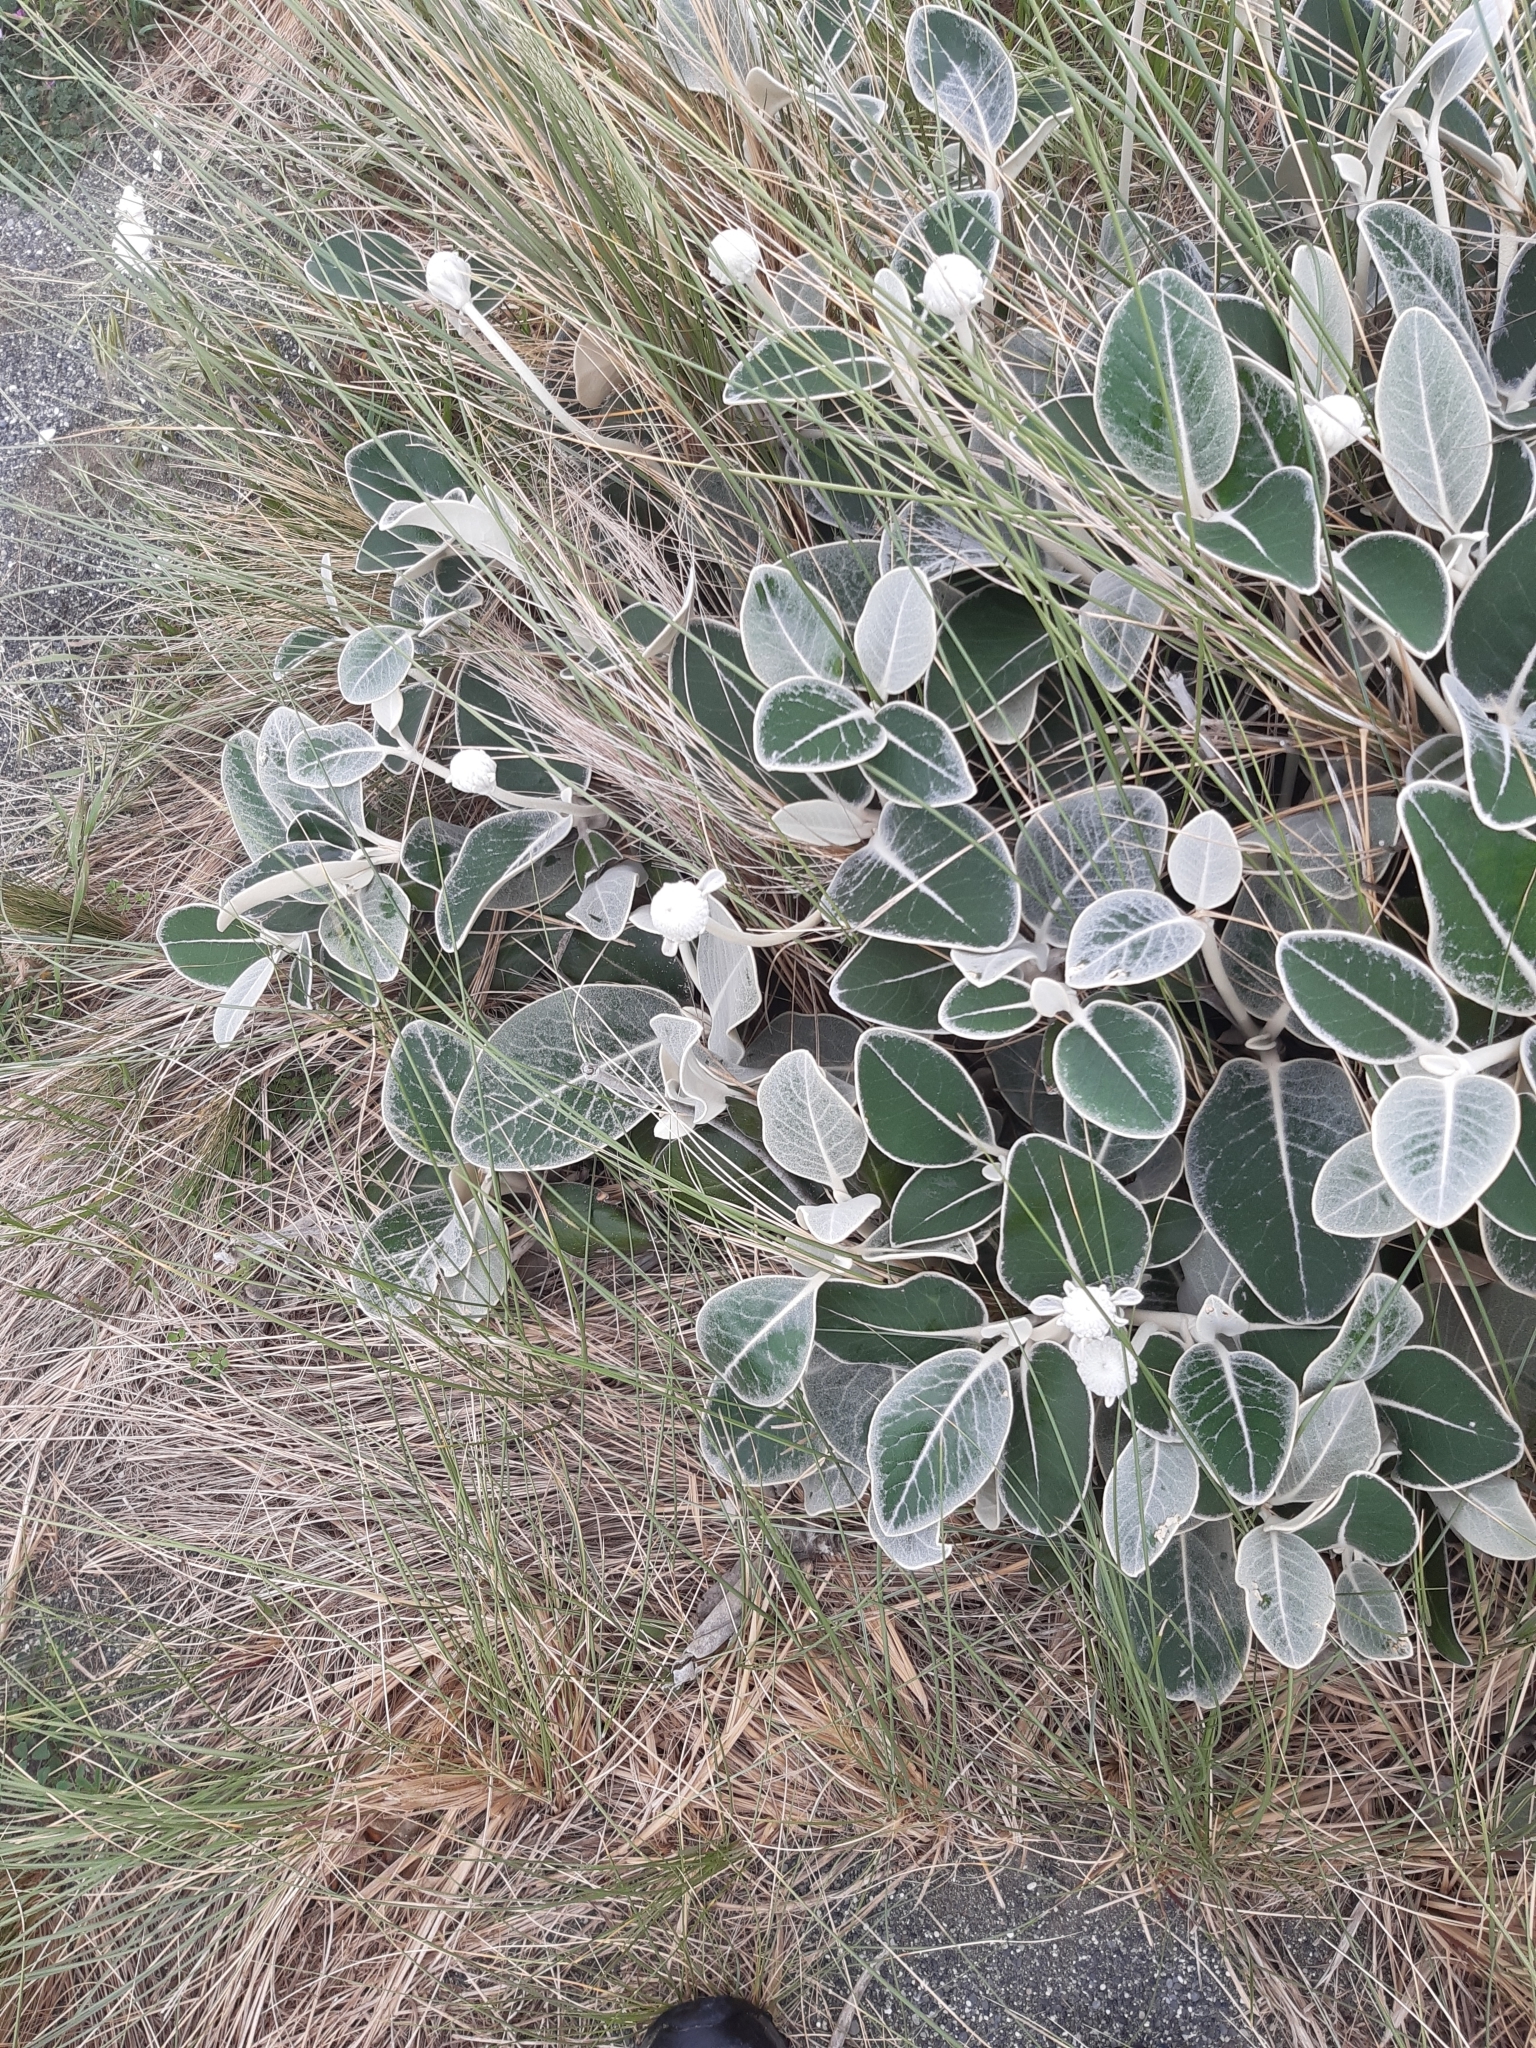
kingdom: Plantae
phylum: Tracheophyta
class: Magnoliopsida
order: Asterales
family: Asteraceae
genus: Pachystegia
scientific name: Pachystegia insignis
